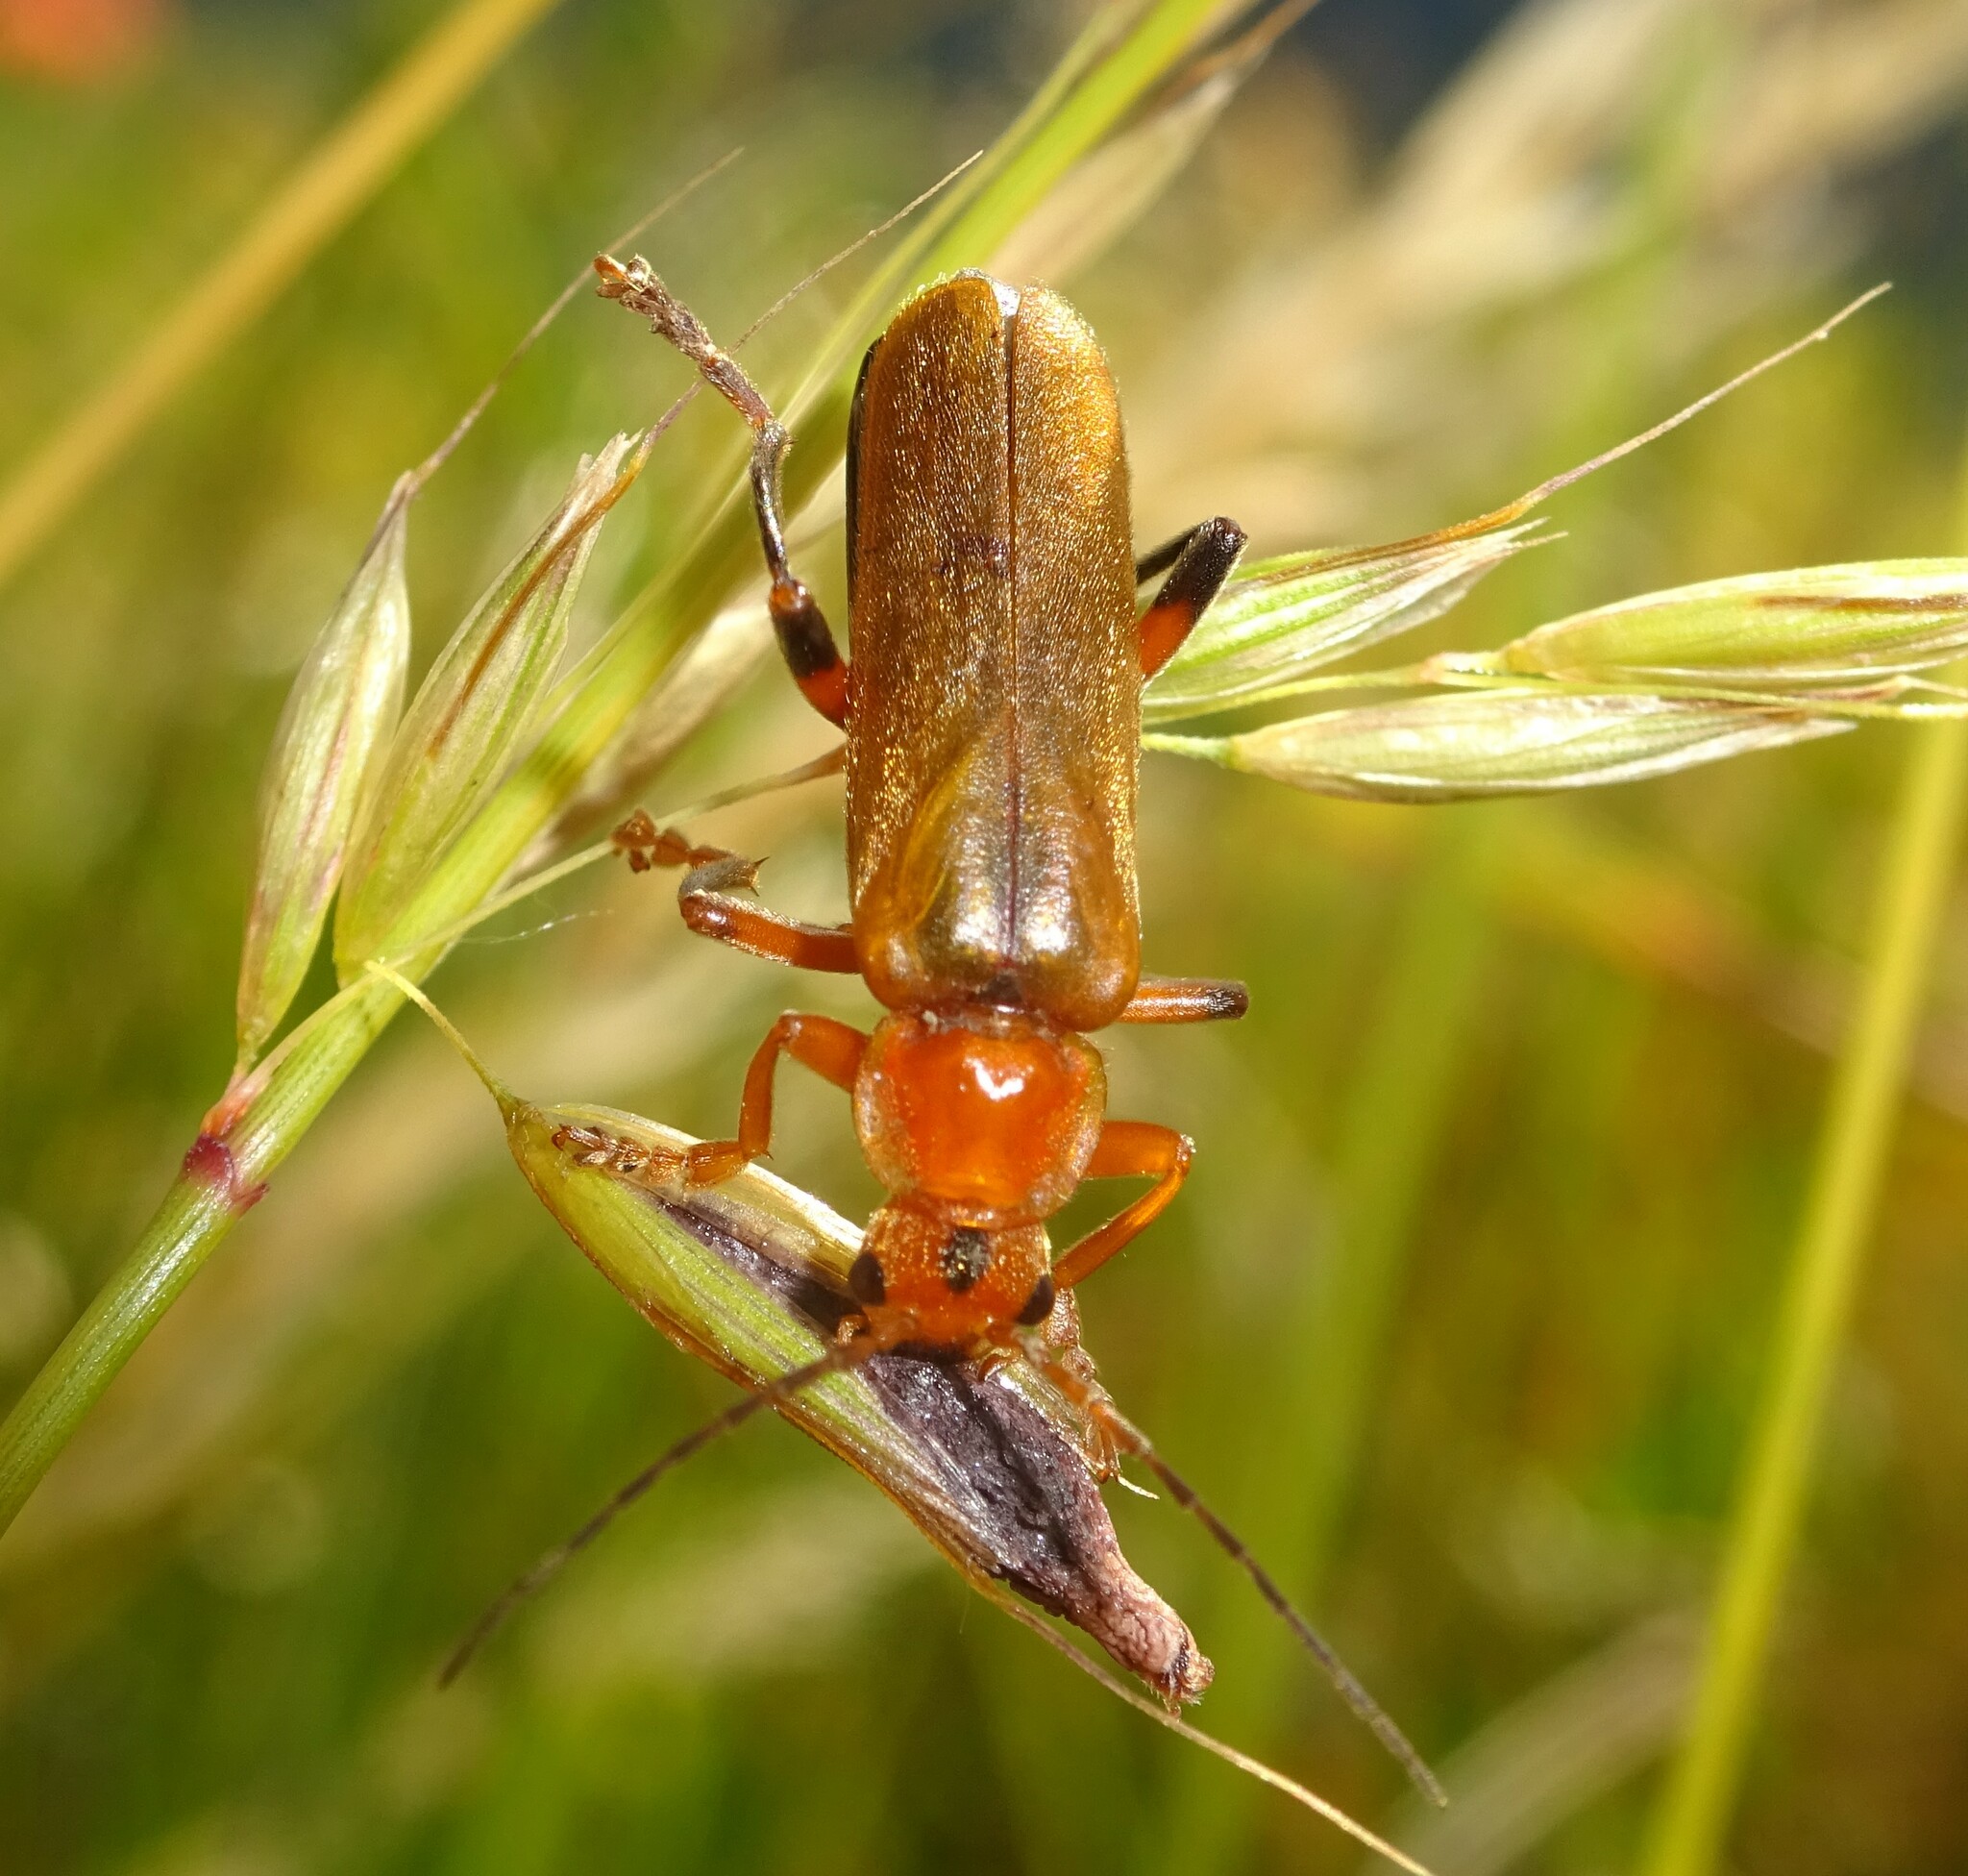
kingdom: Animalia
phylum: Arthropoda
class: Insecta
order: Coleoptera
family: Cantharidae
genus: Cantharis
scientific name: Cantharis livida
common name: Livid soldier beetle
